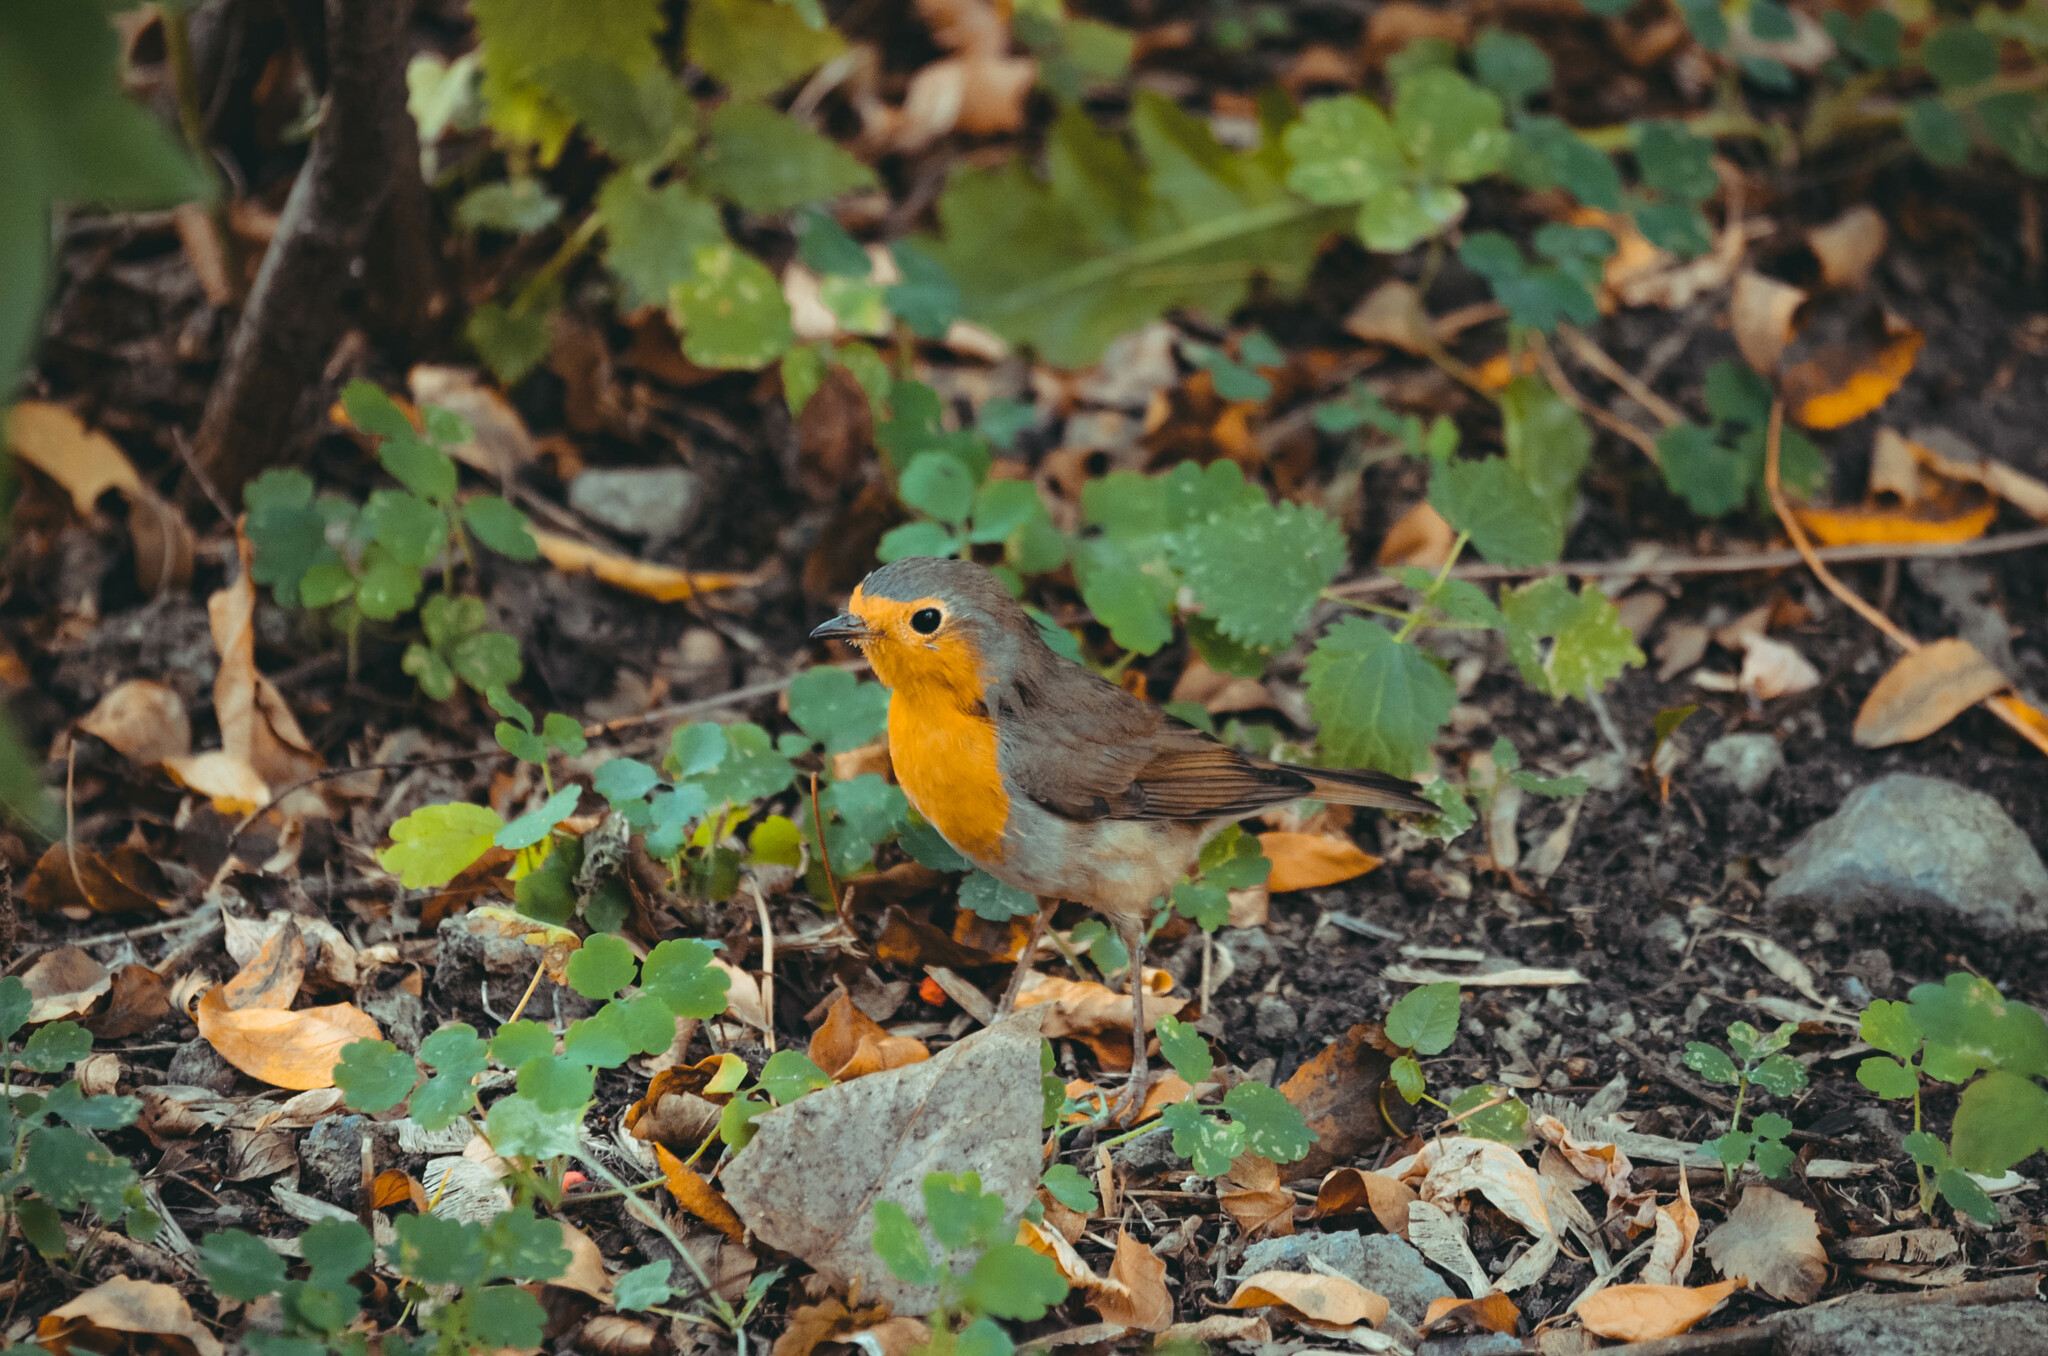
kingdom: Animalia
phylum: Chordata
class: Aves
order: Passeriformes
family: Muscicapidae
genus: Erithacus
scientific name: Erithacus rubecula
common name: European robin
